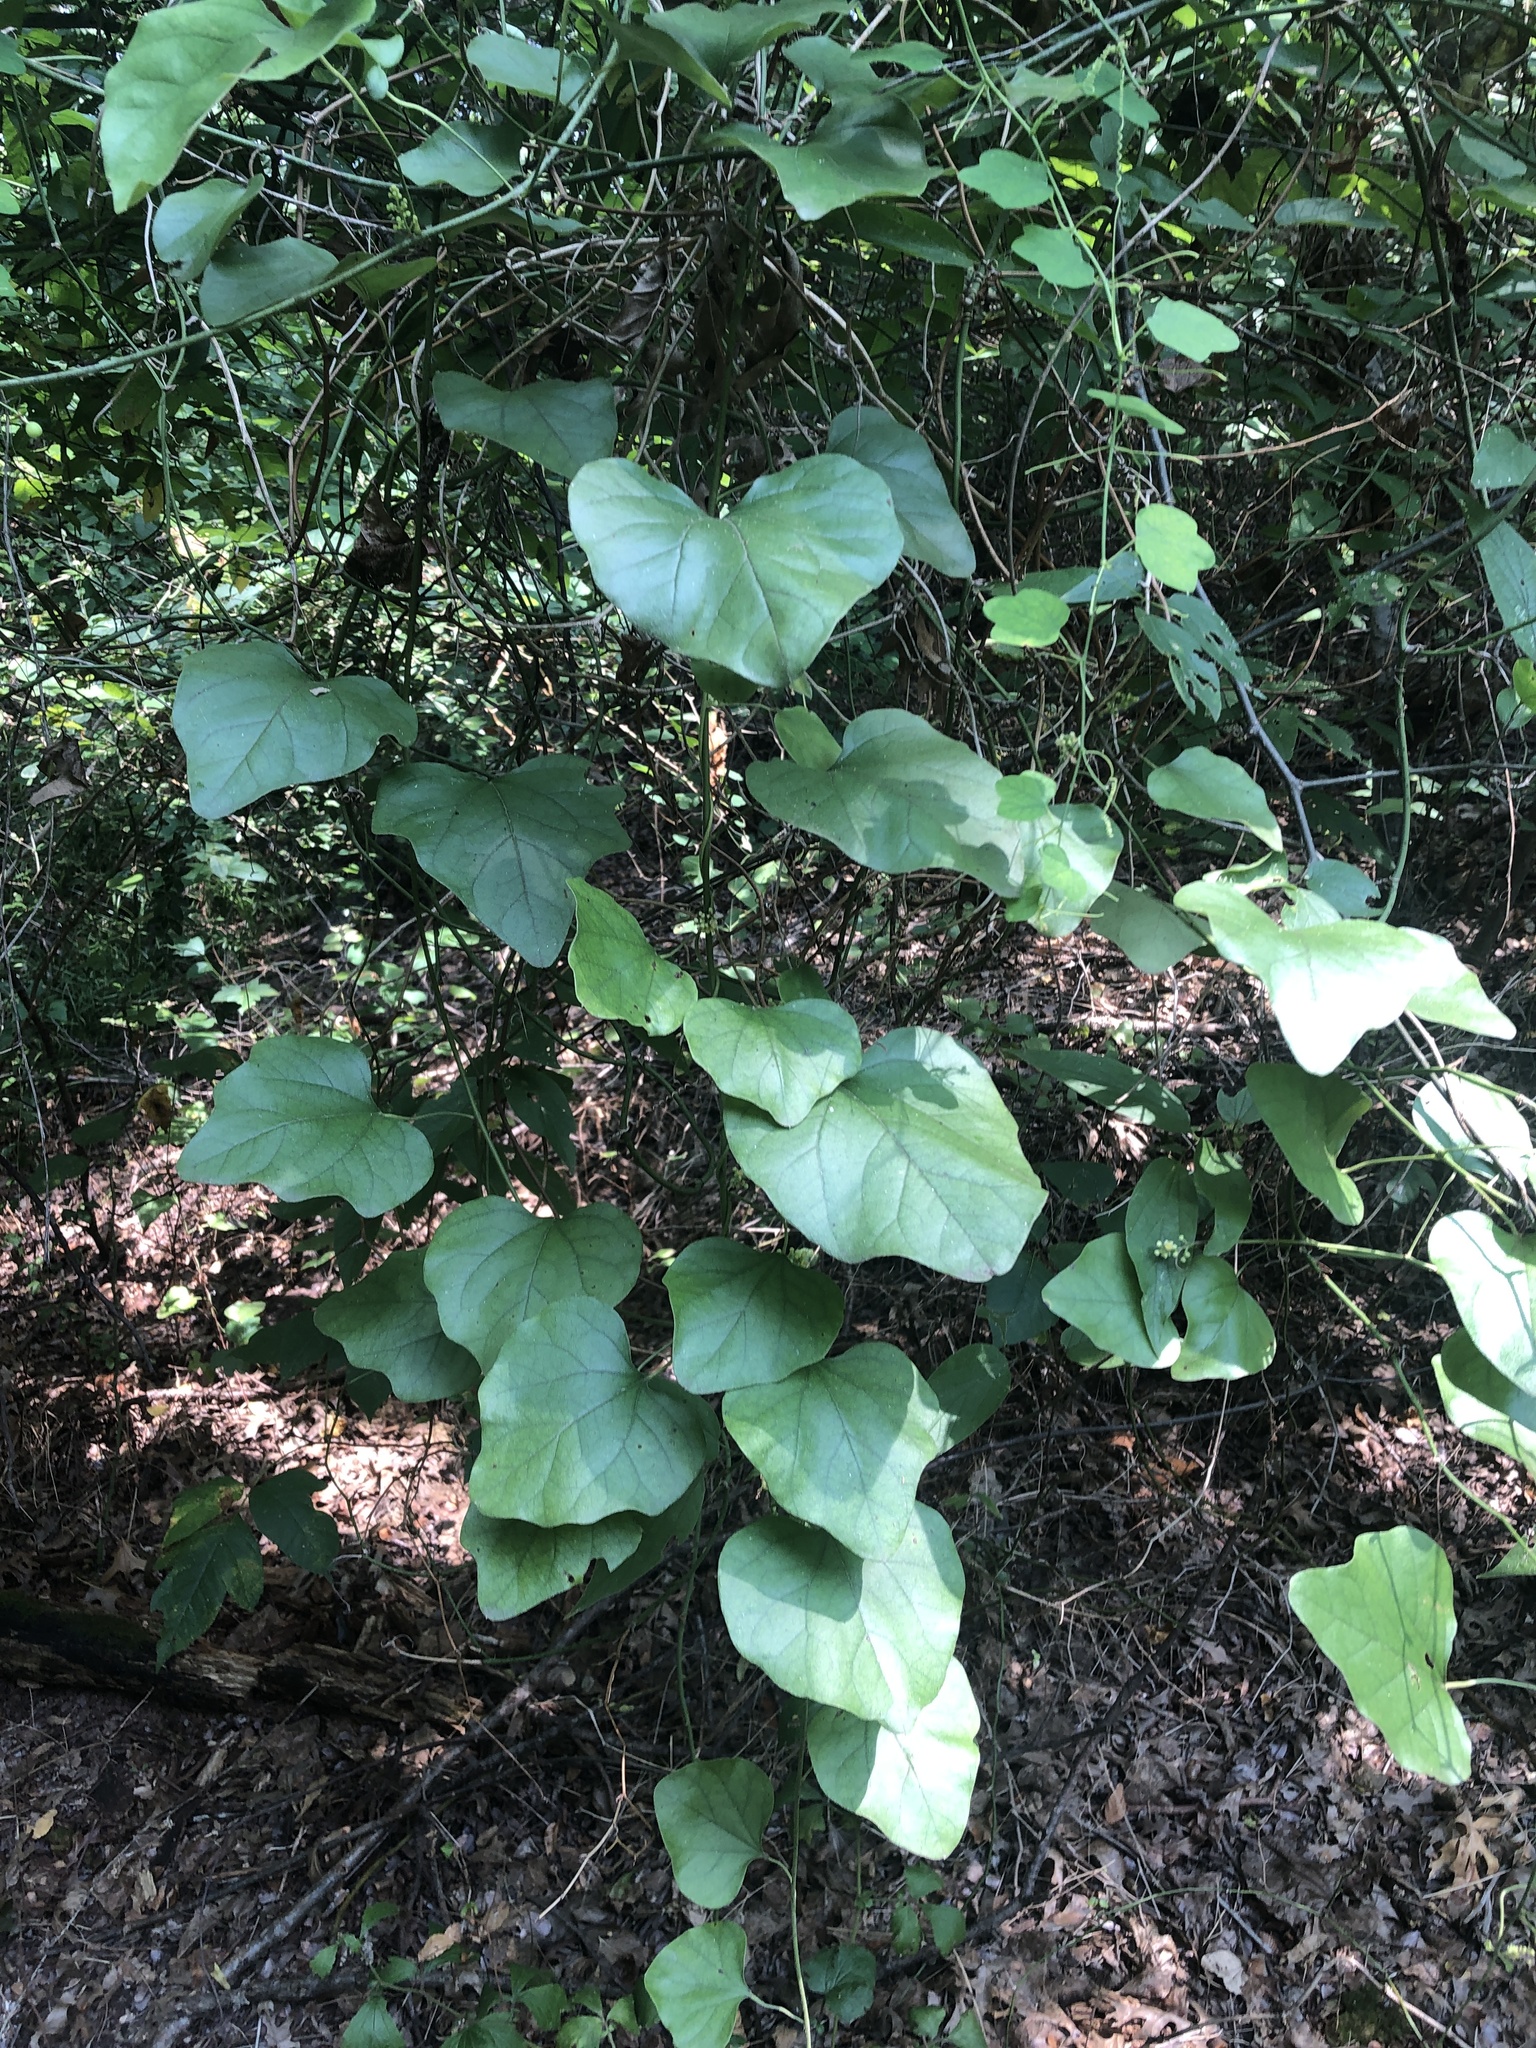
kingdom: Plantae
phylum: Tracheophyta
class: Magnoliopsida
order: Ranunculales
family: Menispermaceae
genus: Cocculus
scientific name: Cocculus carolinus
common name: Carolina moonseed
